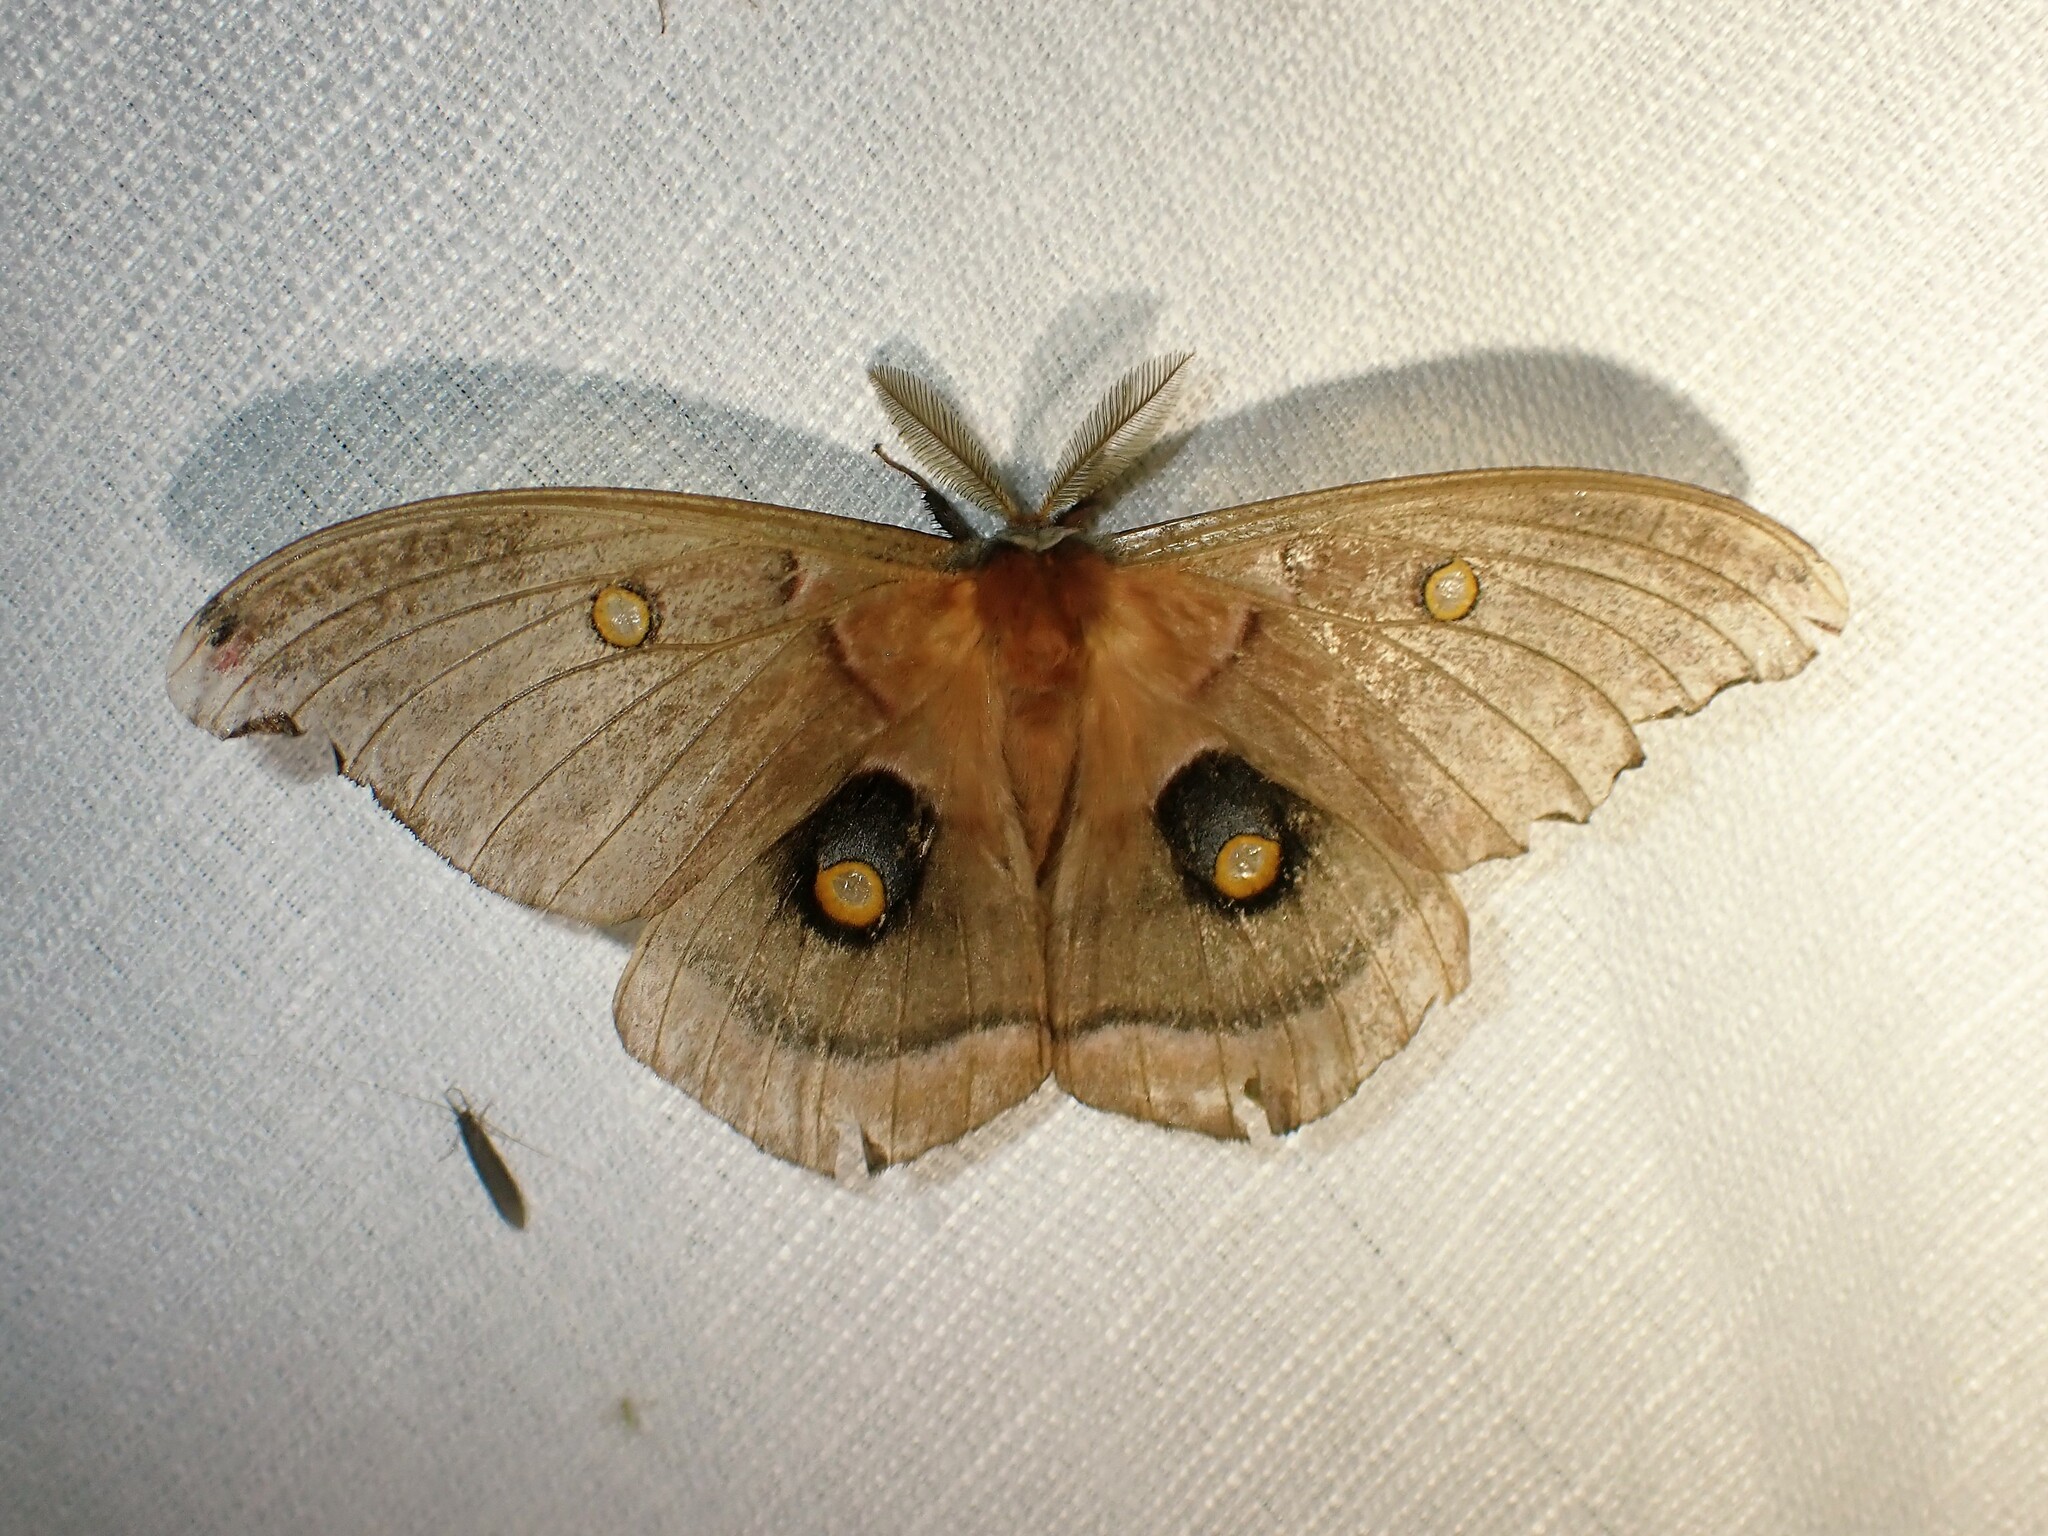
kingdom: Animalia
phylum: Arthropoda
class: Insecta
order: Lepidoptera
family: Saturniidae
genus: Antheraea
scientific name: Antheraea polyphemus
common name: Polyphemus moth
